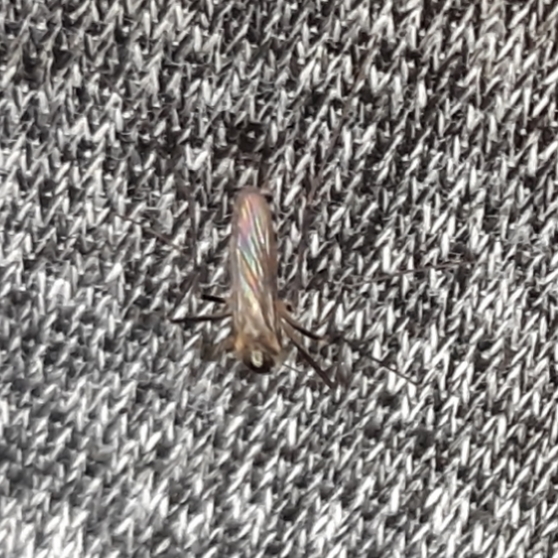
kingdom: Animalia
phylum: Arthropoda
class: Insecta
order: Diptera
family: Culicidae
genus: Aedes
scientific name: Aedes triseriatus
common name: Eastern treehole mosquito
